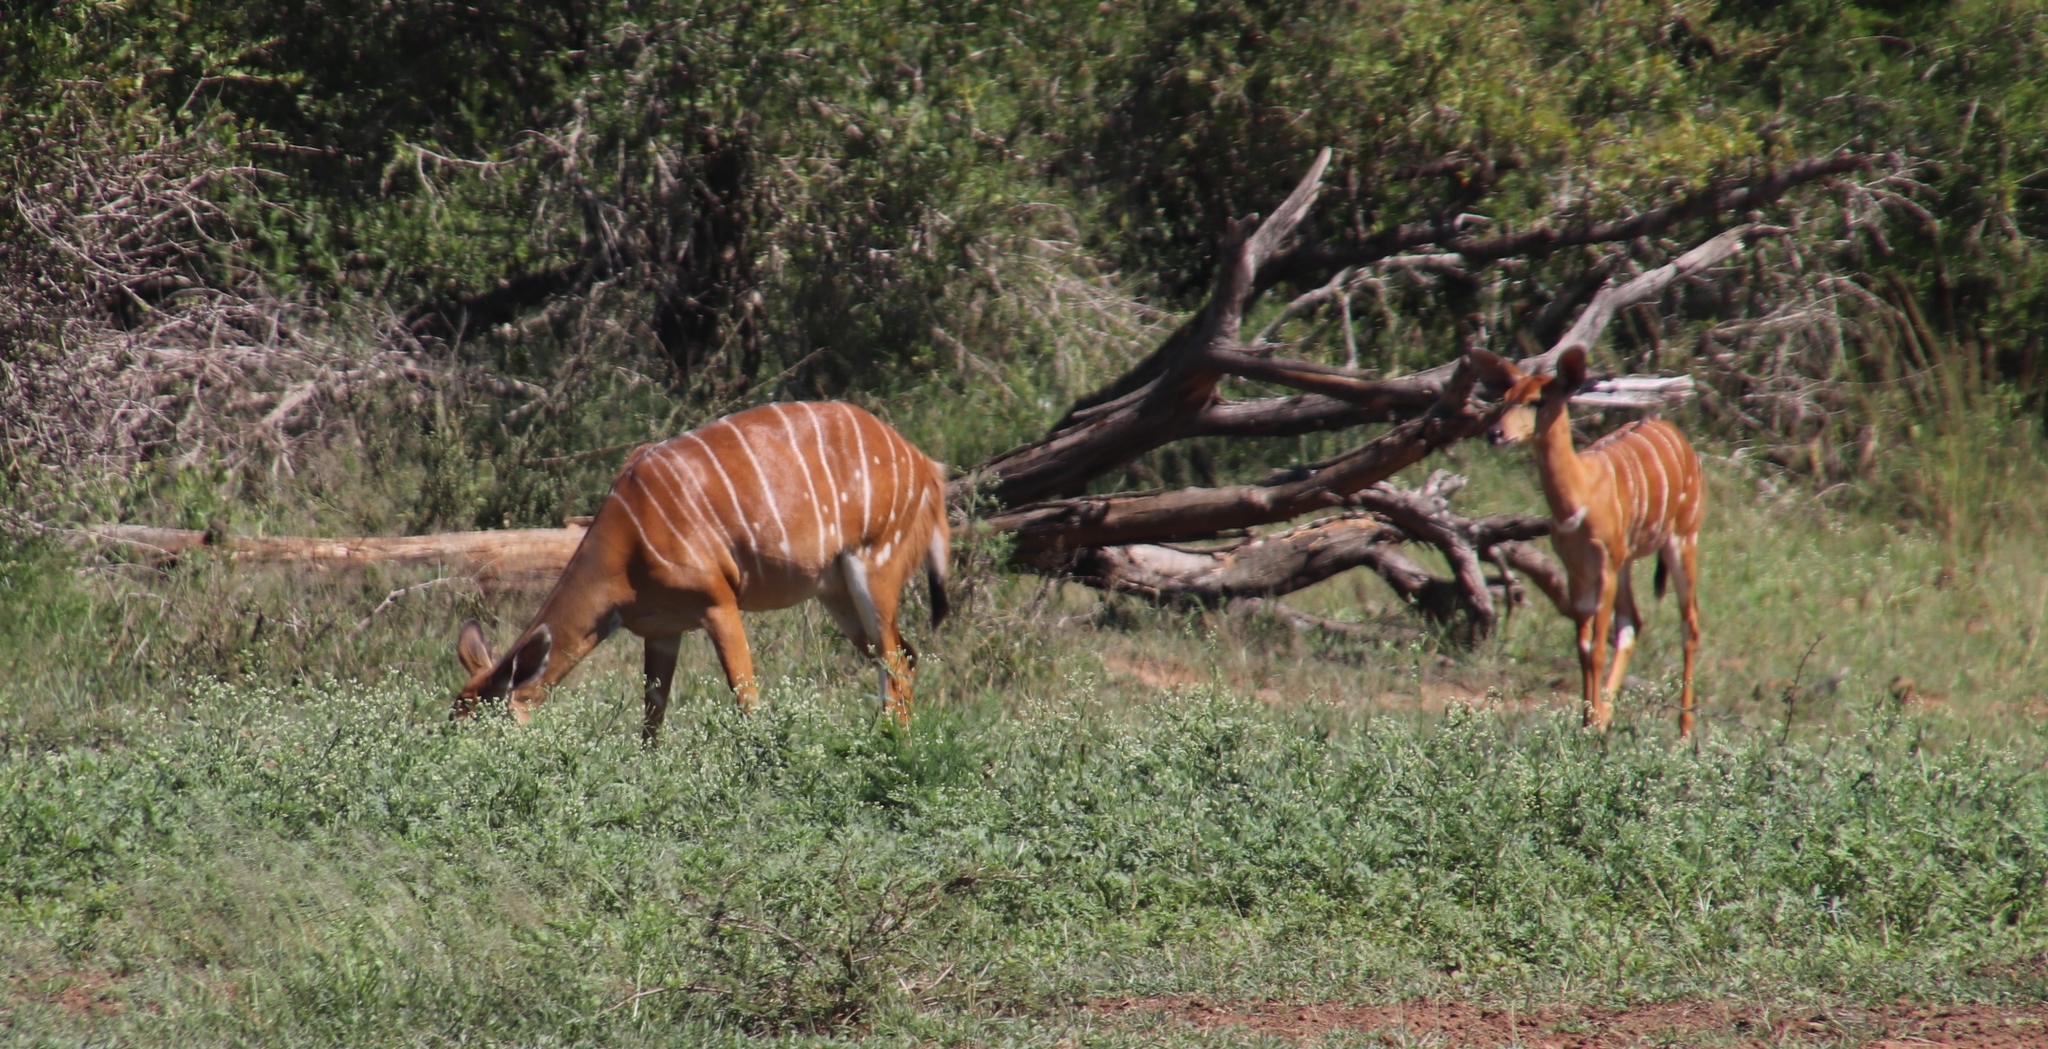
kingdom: Animalia
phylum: Chordata
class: Mammalia
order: Artiodactyla
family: Bovidae
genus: Tragelaphus
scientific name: Tragelaphus angasii
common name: Nyala
